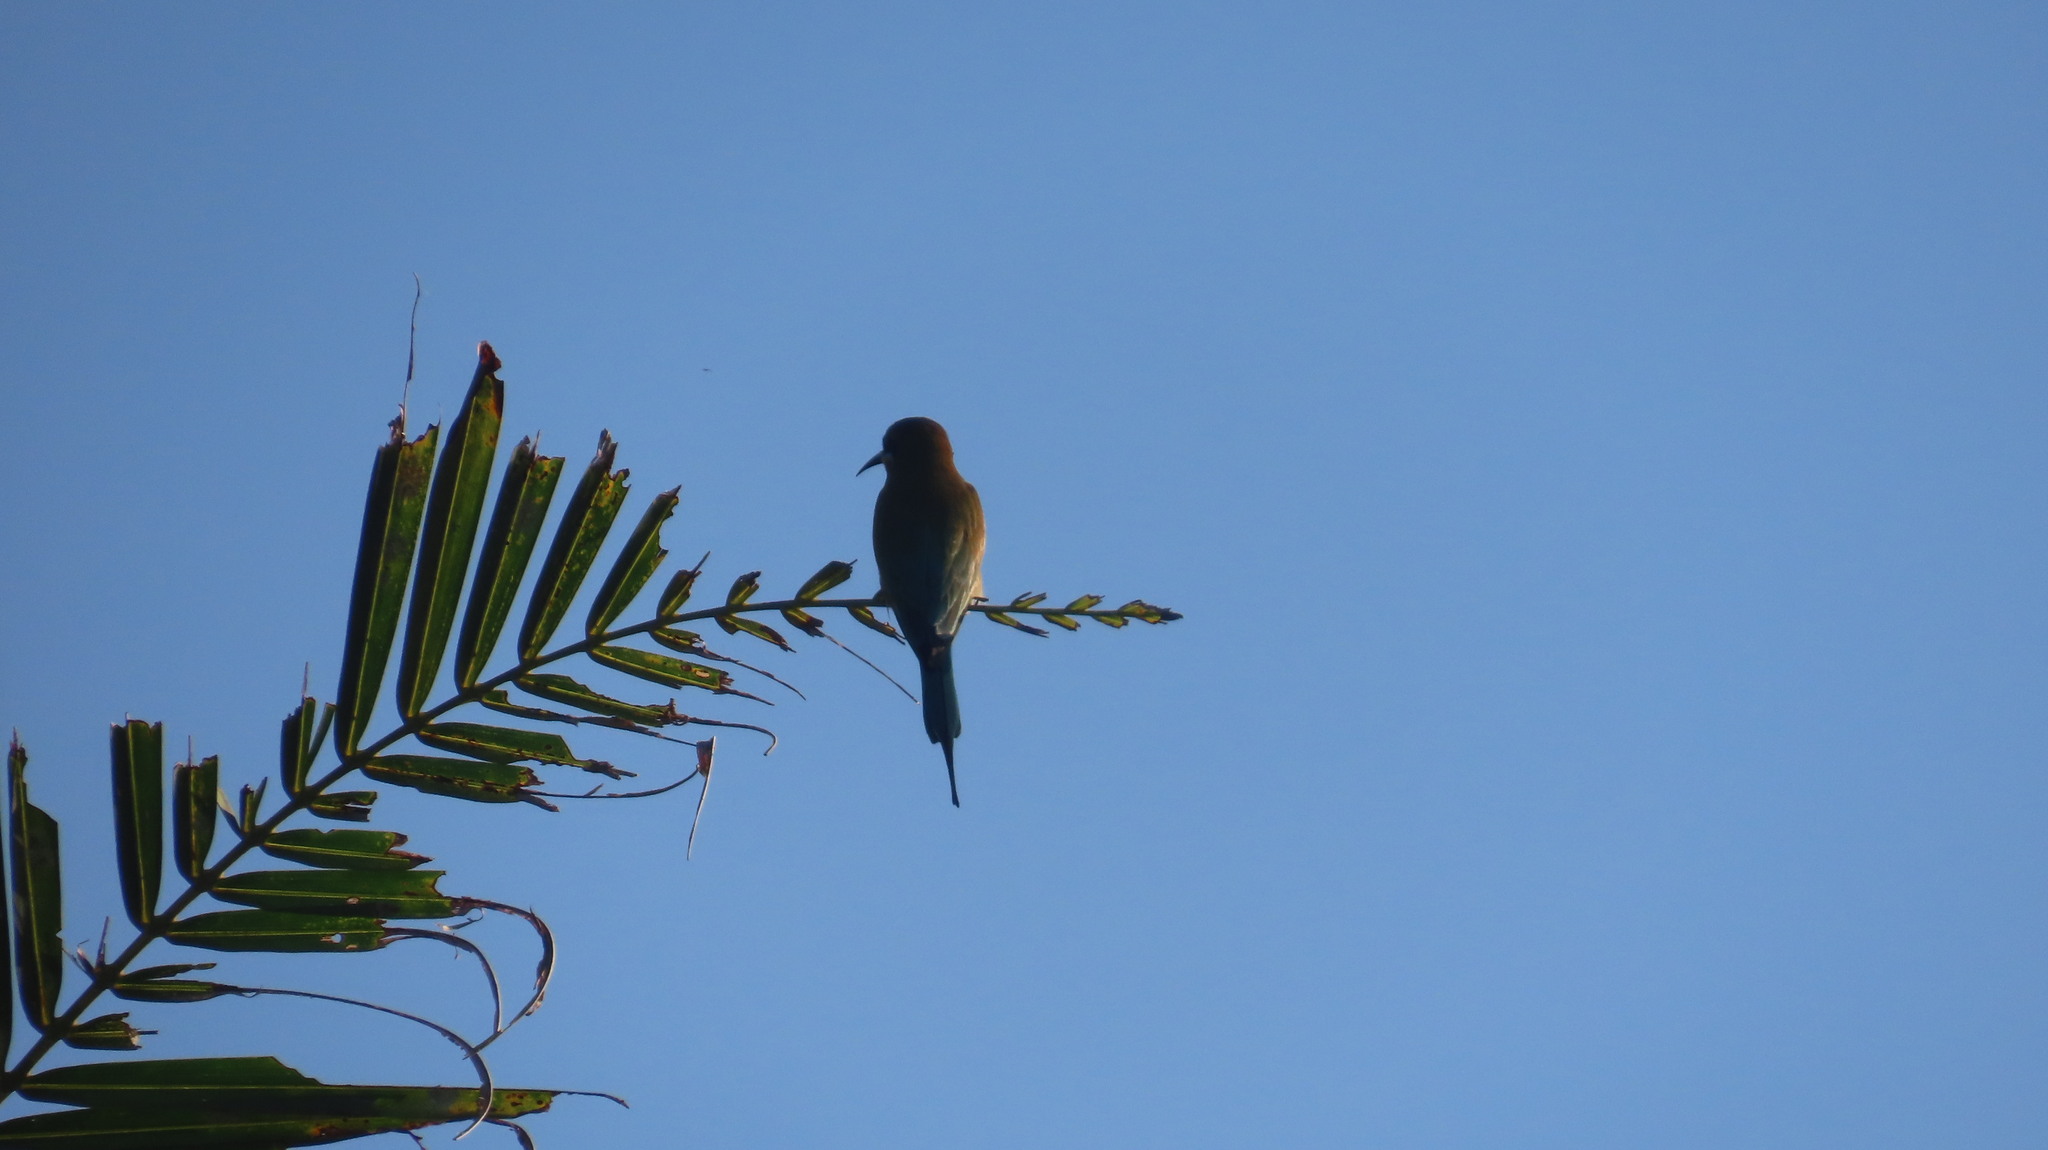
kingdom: Animalia
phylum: Chordata
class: Aves
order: Coraciiformes
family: Meropidae
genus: Merops
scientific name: Merops philippinus
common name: Blue-tailed bee-eater
